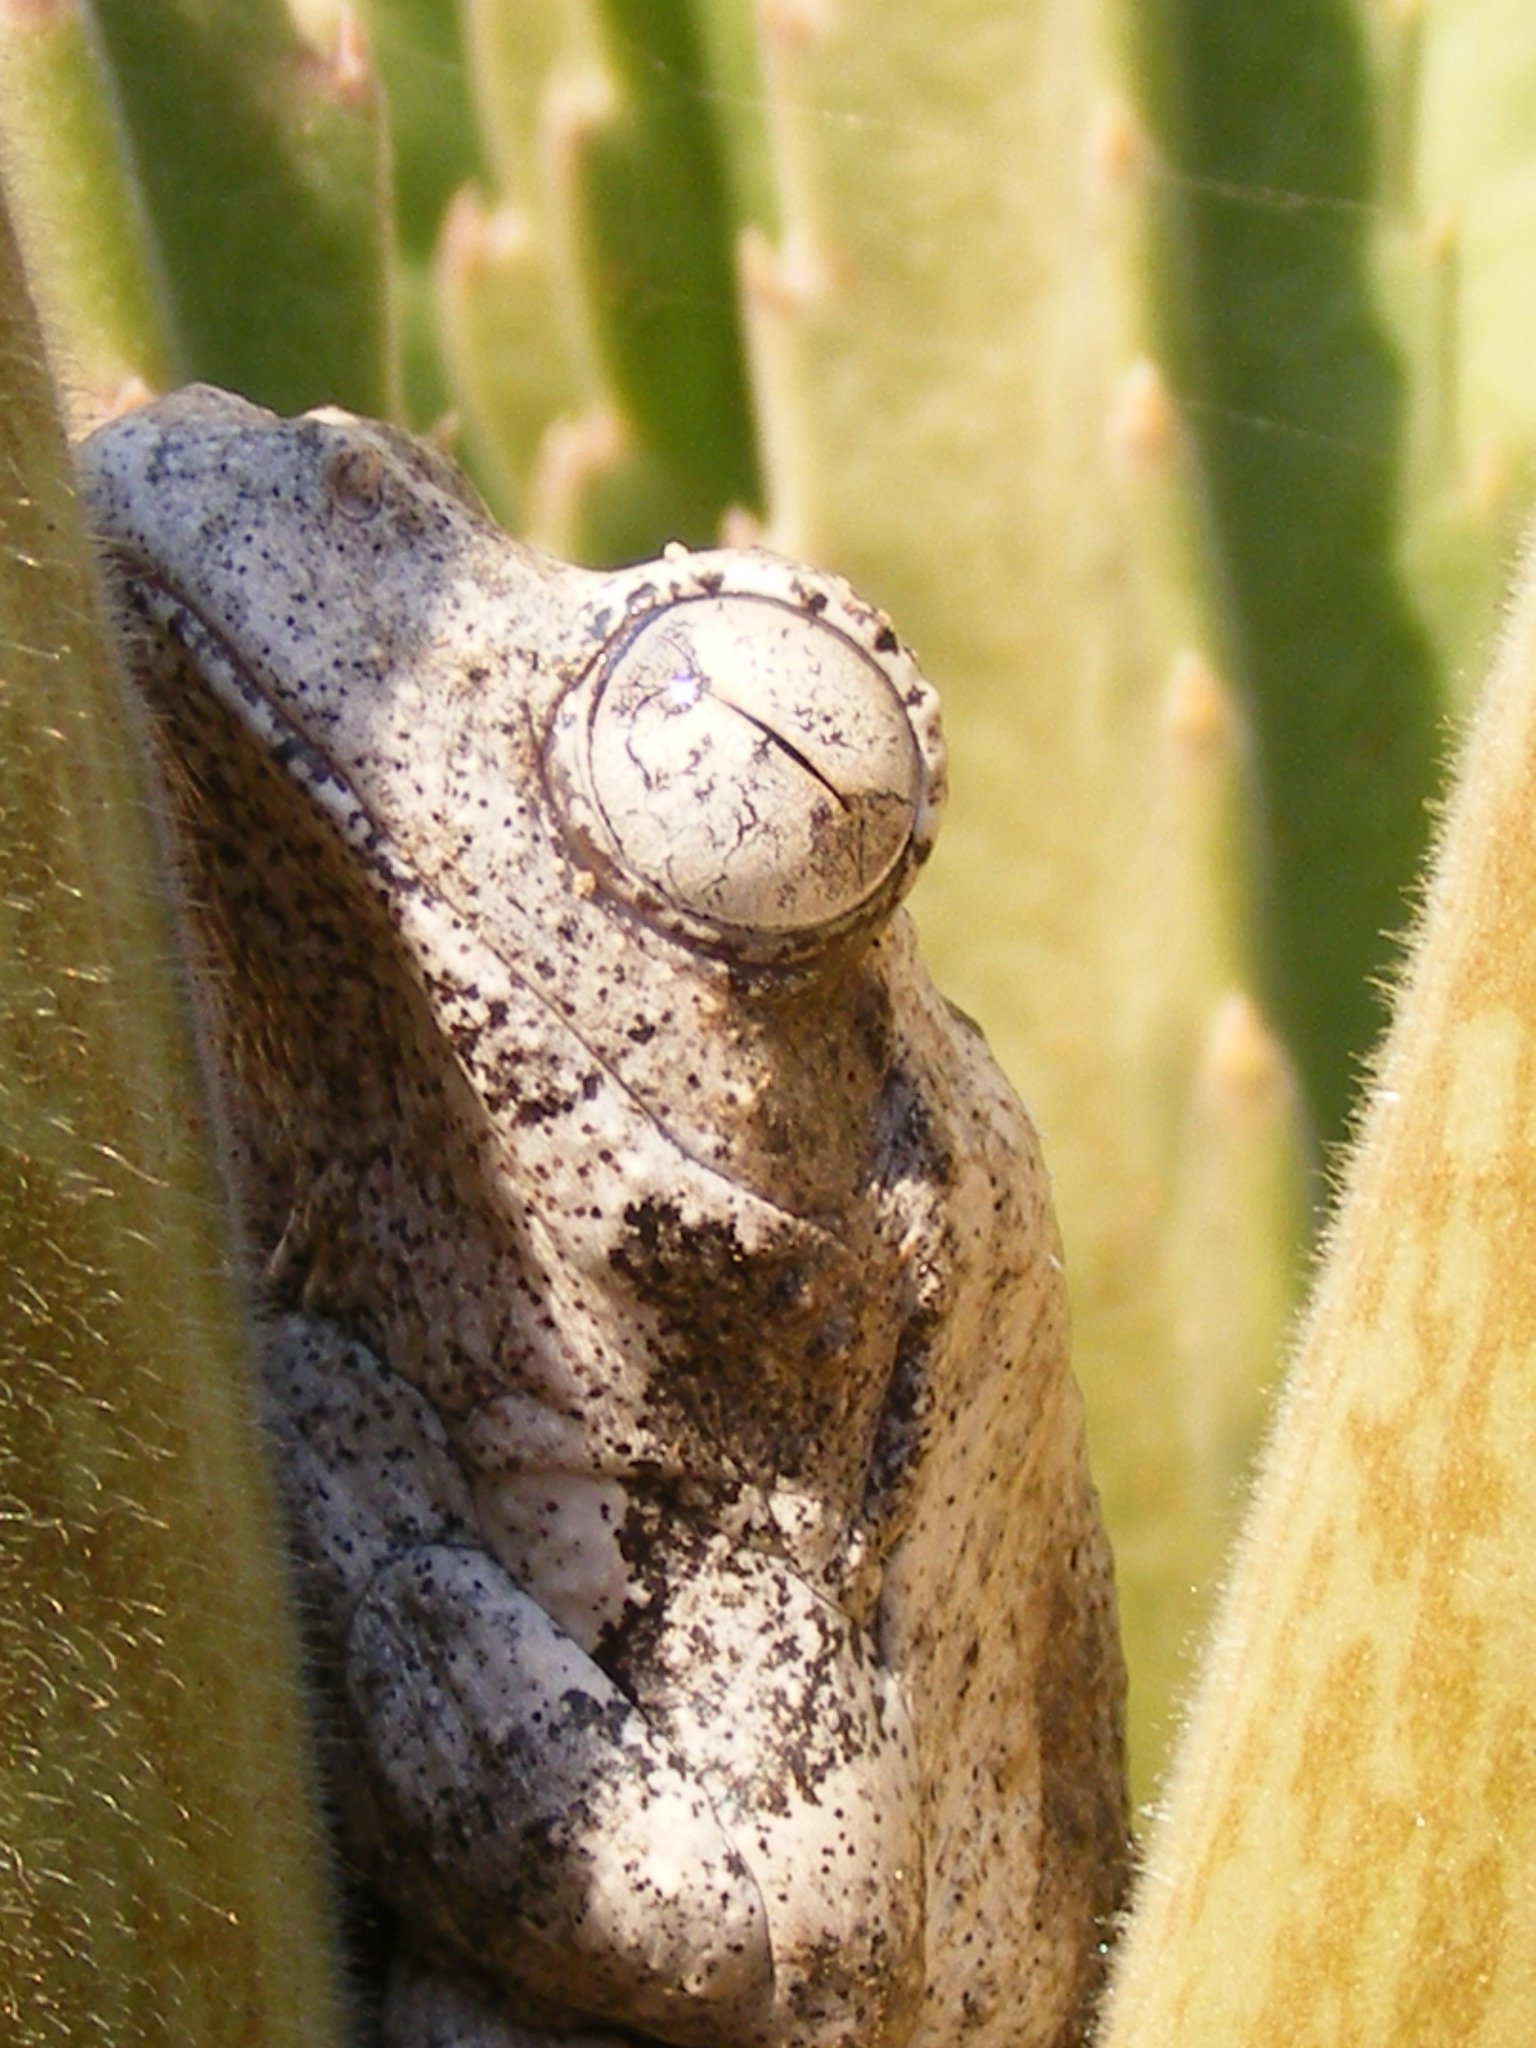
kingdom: Animalia
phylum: Chordata
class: Amphibia
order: Anura
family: Rhacophoridae
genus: Chiromantis
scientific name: Chiromantis xerampelina
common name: African gray treefrog
